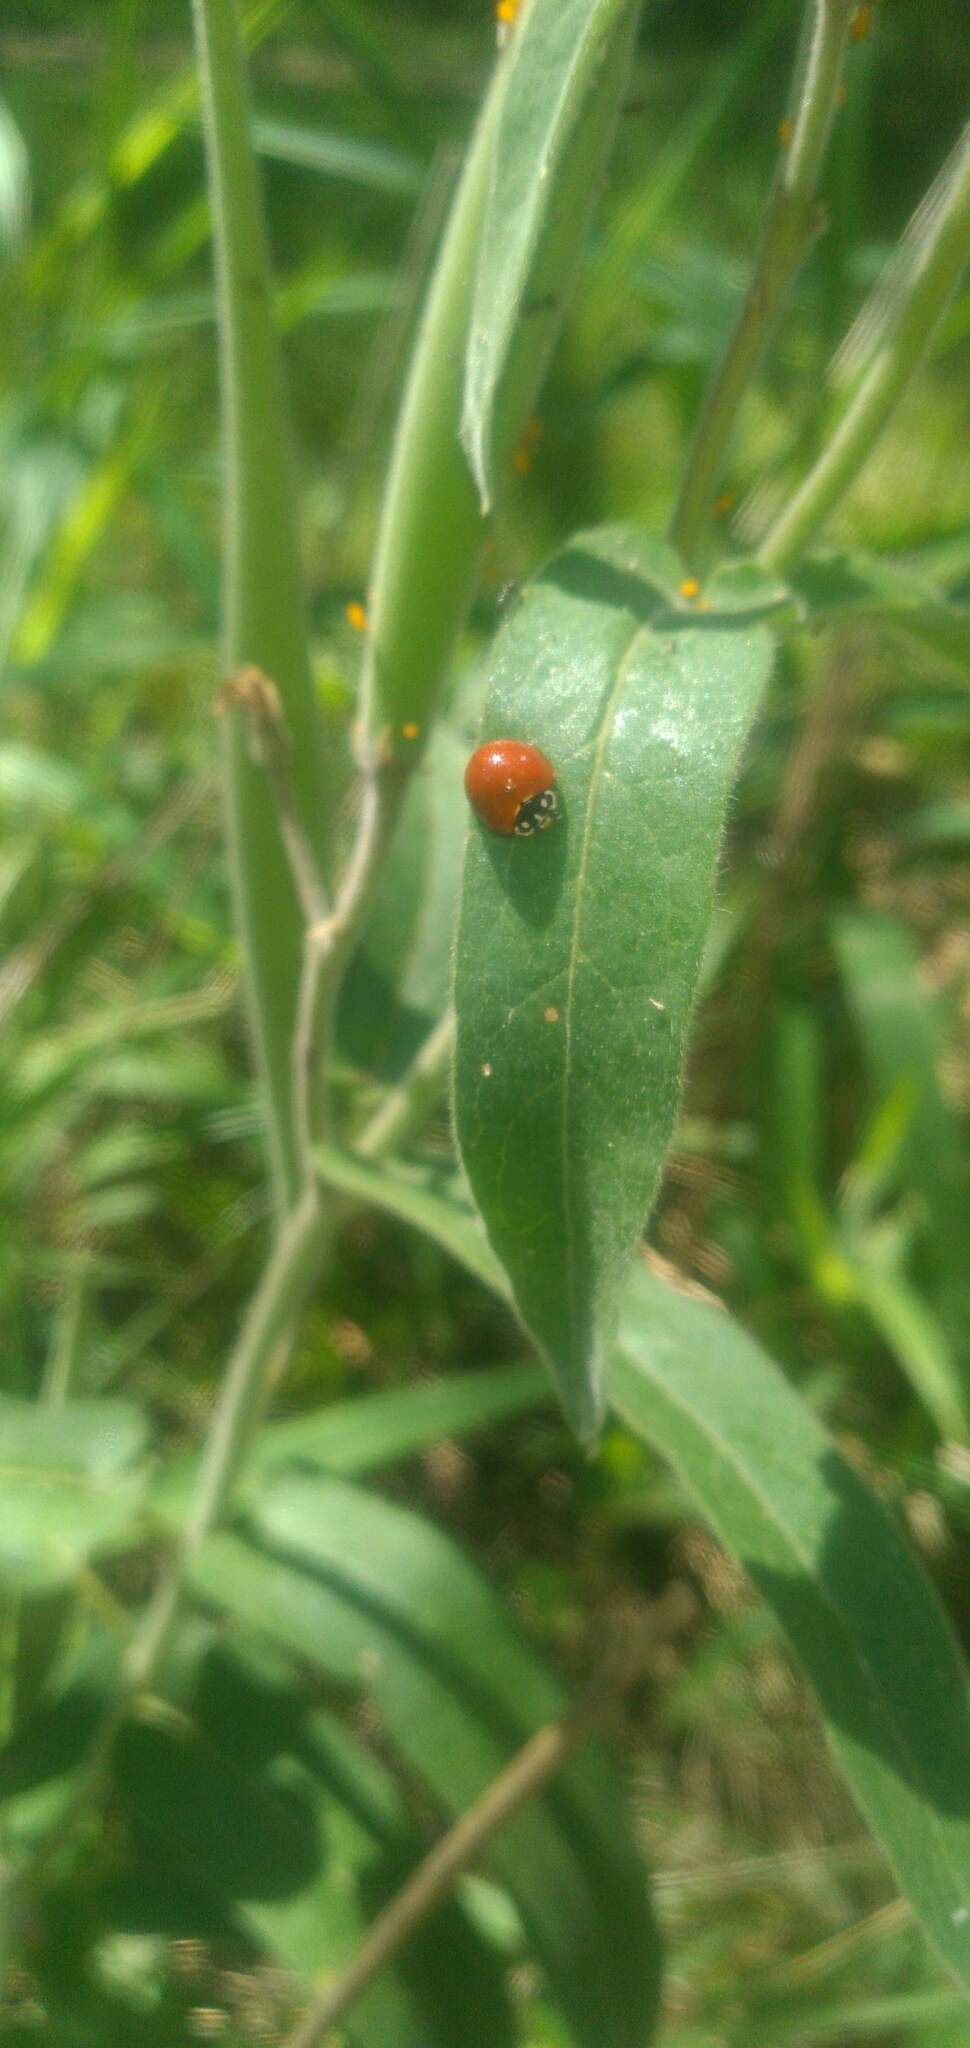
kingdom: Animalia
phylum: Arthropoda
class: Insecta
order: Coleoptera
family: Coccinellidae
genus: Cycloneda
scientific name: Cycloneda sanguinea
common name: Ladybird beetle
